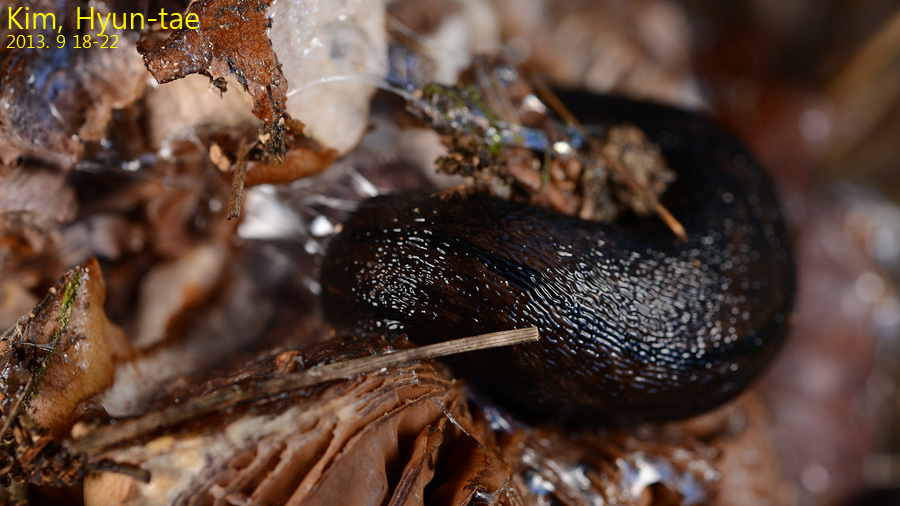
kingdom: Animalia
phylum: Mollusca
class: Gastropoda
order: Stylommatophora
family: Philomycidae
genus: Meghimatium
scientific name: Meghimatium fruhstorferi
